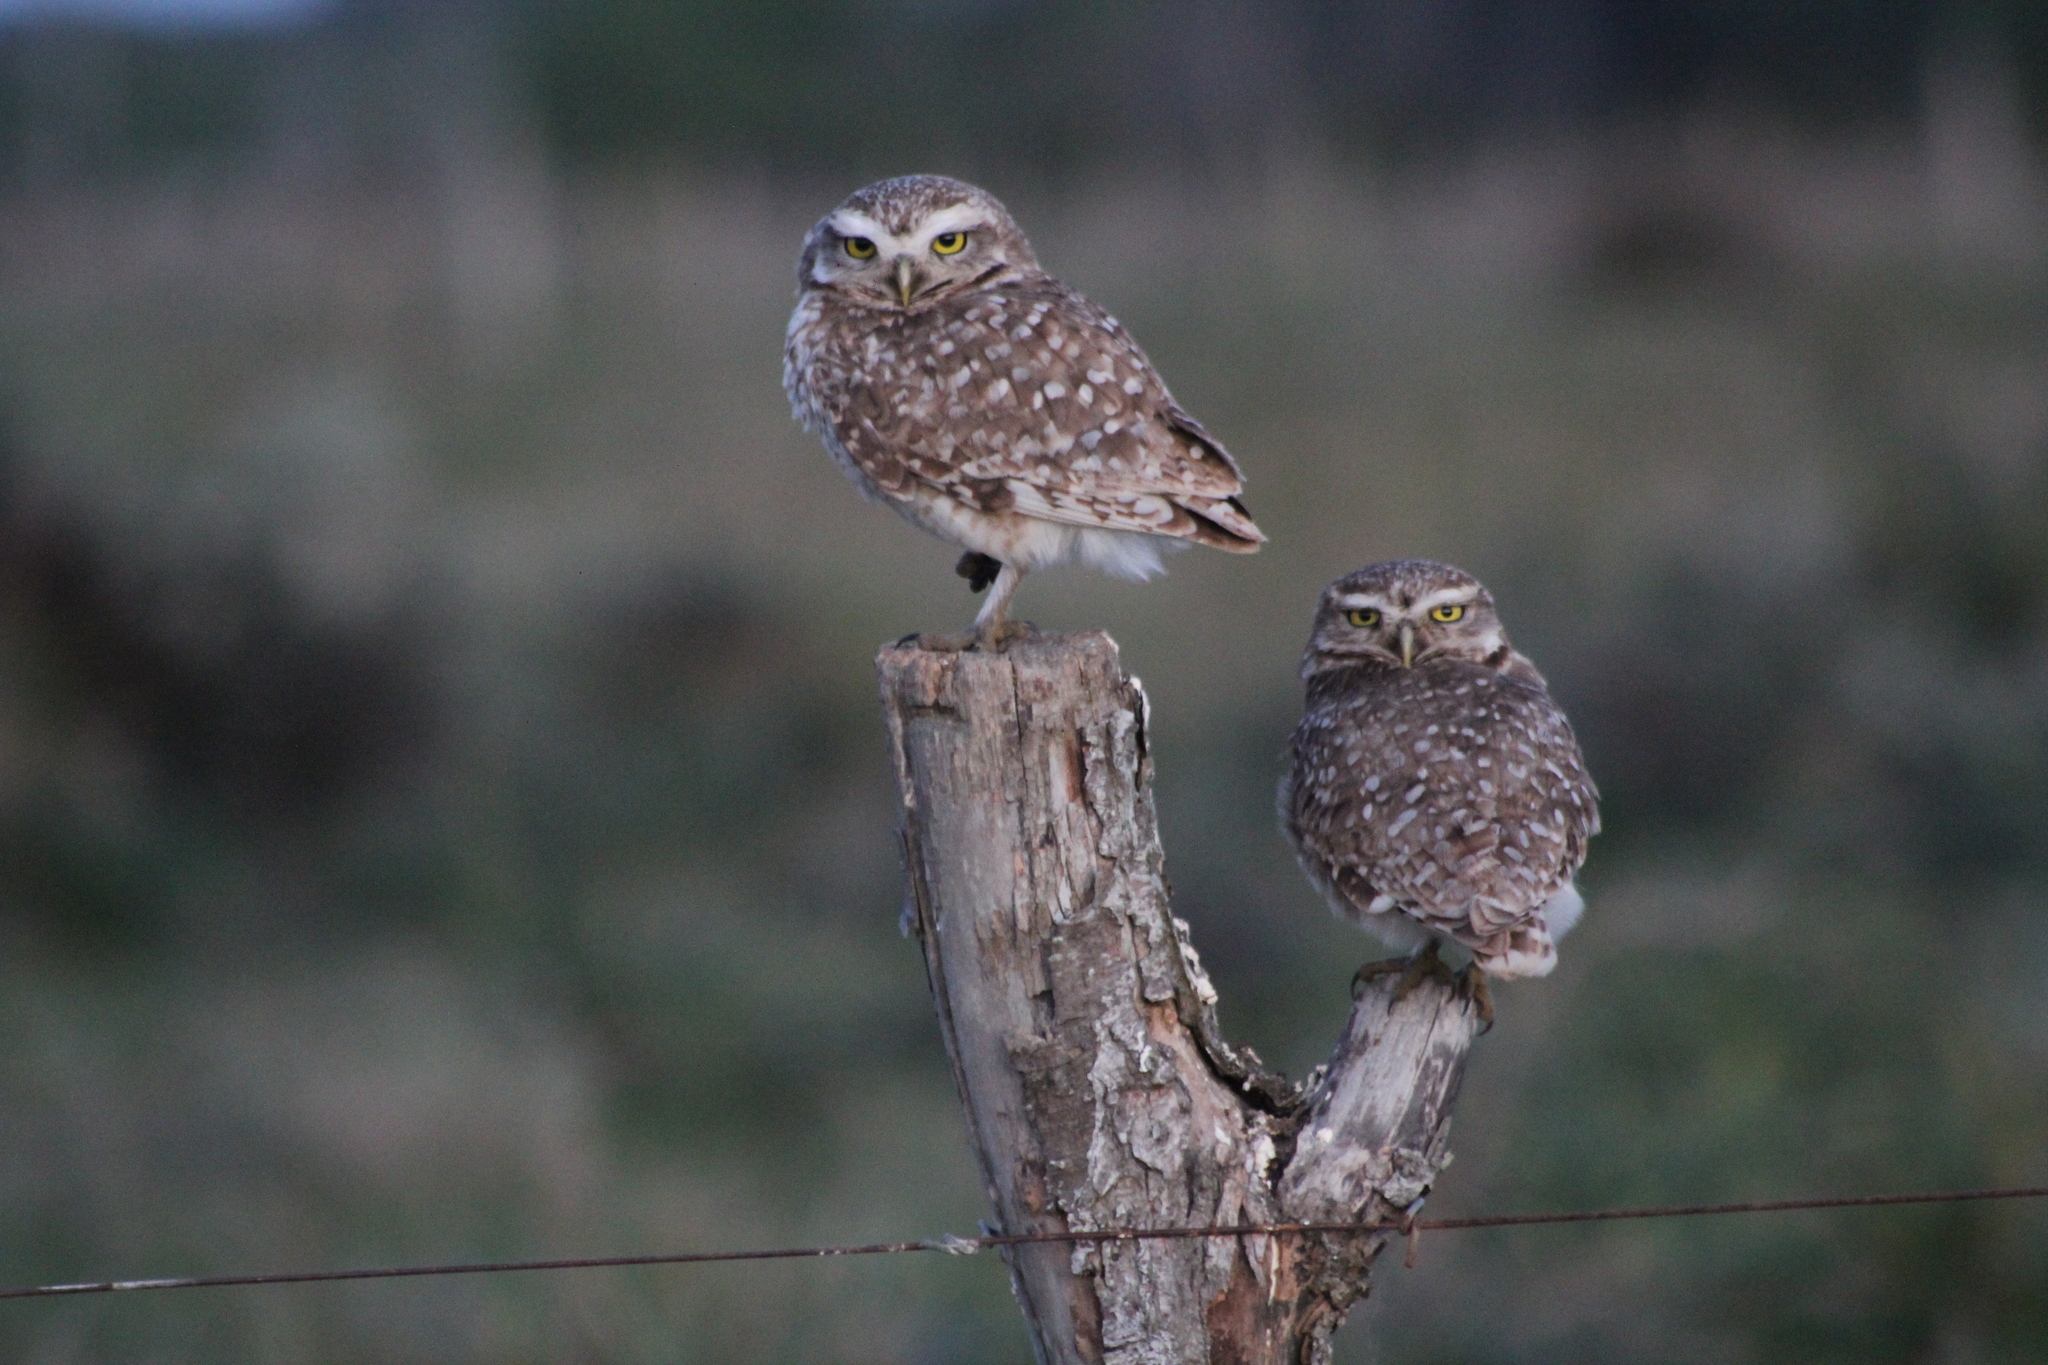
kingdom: Animalia
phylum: Chordata
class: Aves
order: Strigiformes
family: Strigidae
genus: Athene
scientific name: Athene cunicularia
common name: Burrowing owl
